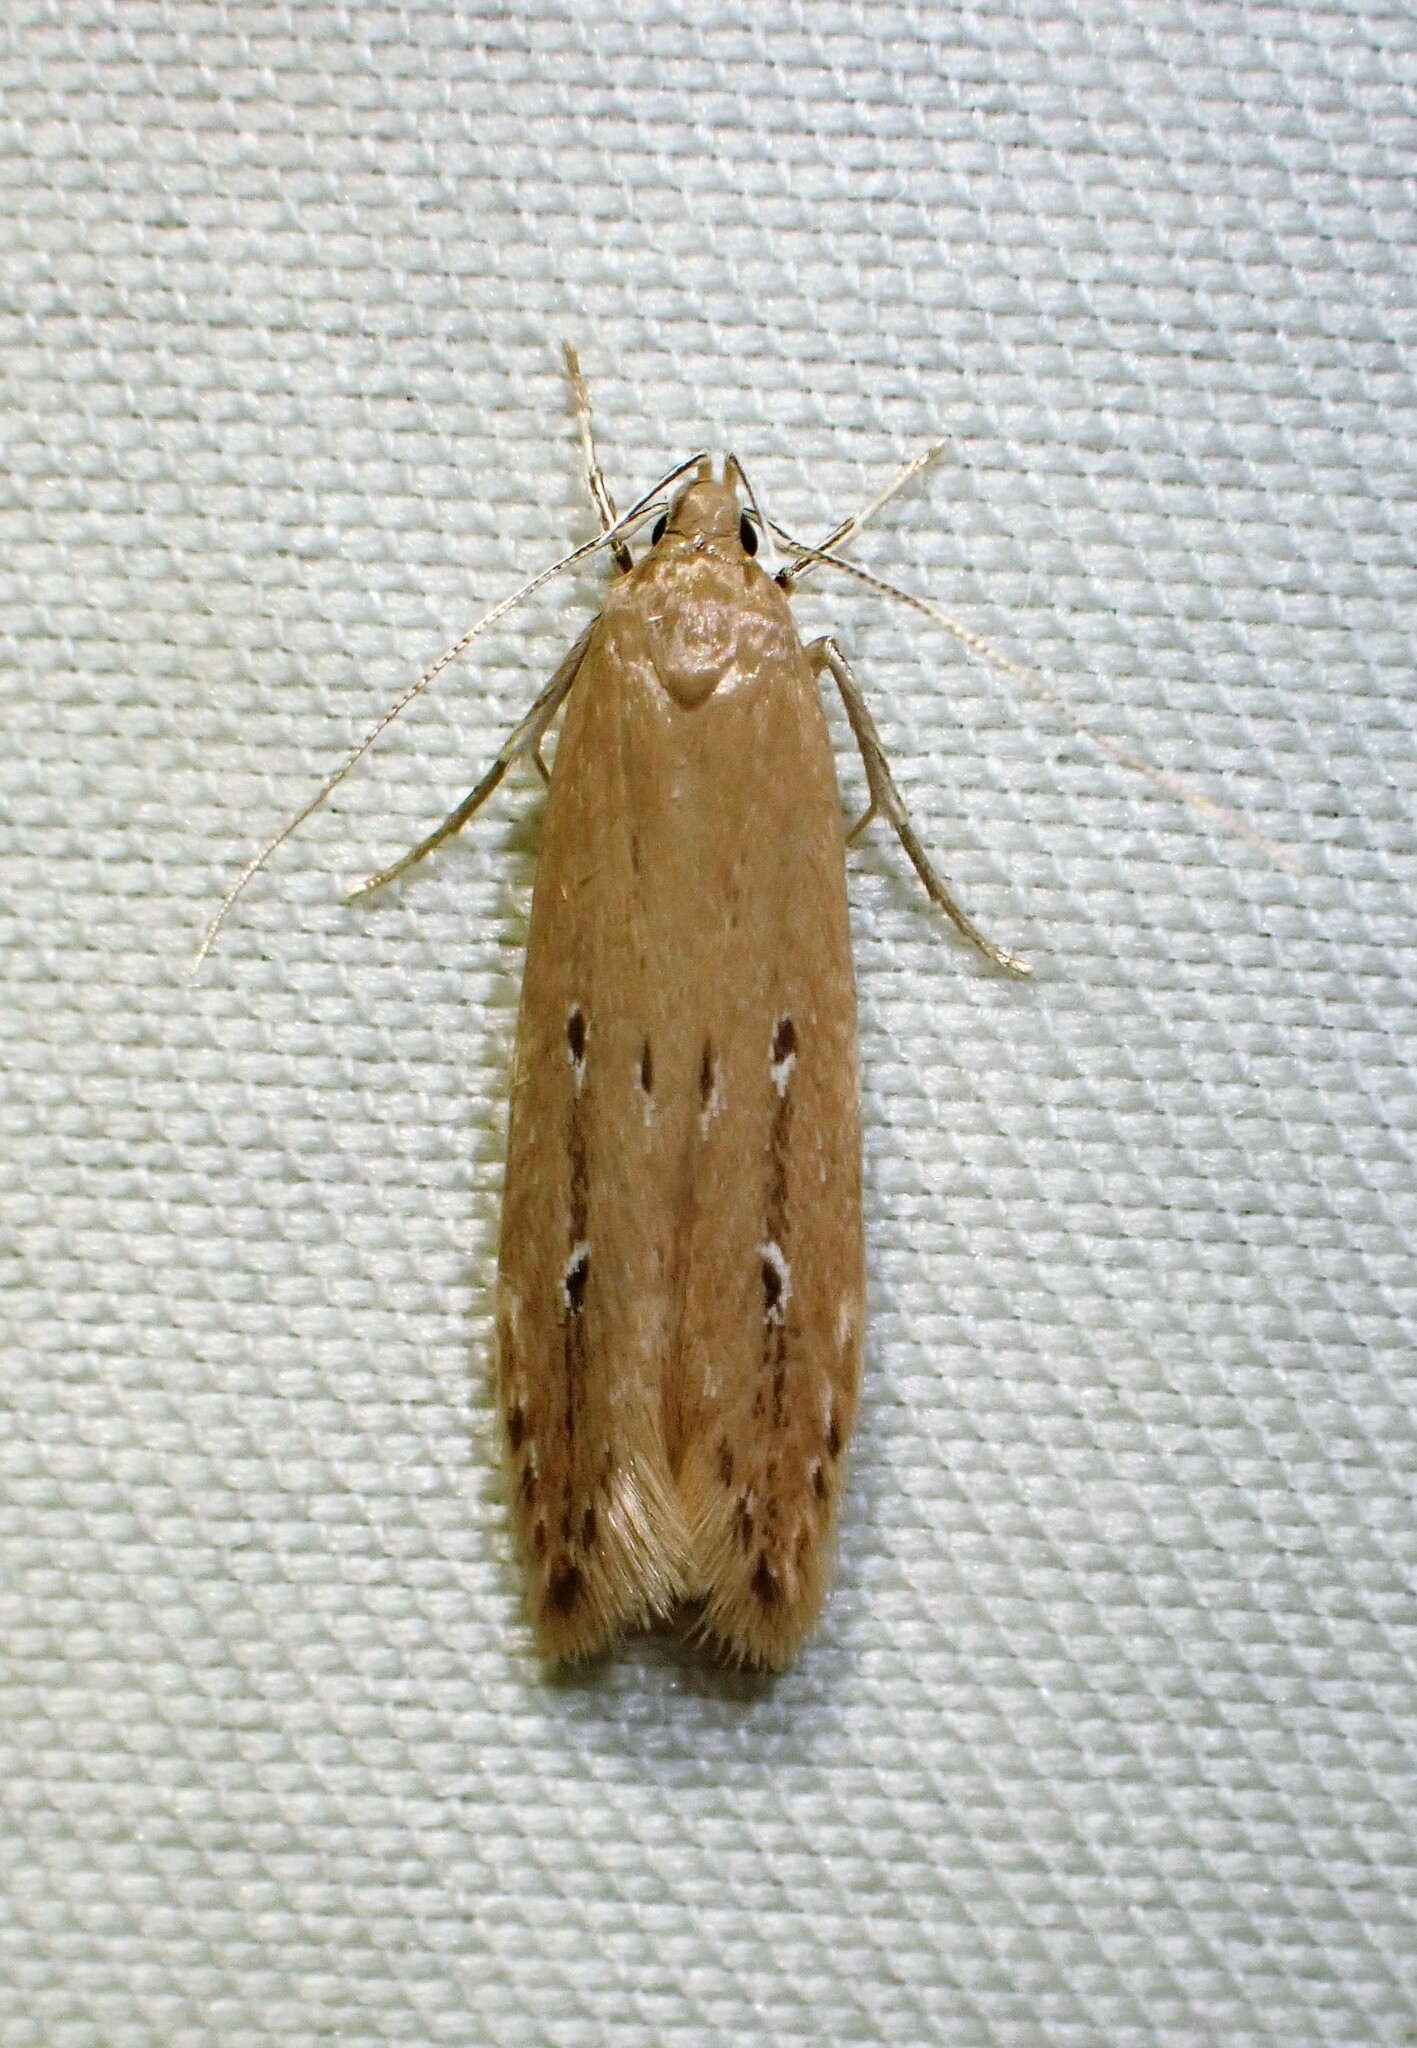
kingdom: Animalia
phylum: Arthropoda
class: Insecta
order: Lepidoptera
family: Cosmopterigidae
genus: Limnaecia
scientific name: Limnaecia phragmitella
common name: Bulrush cosmet
